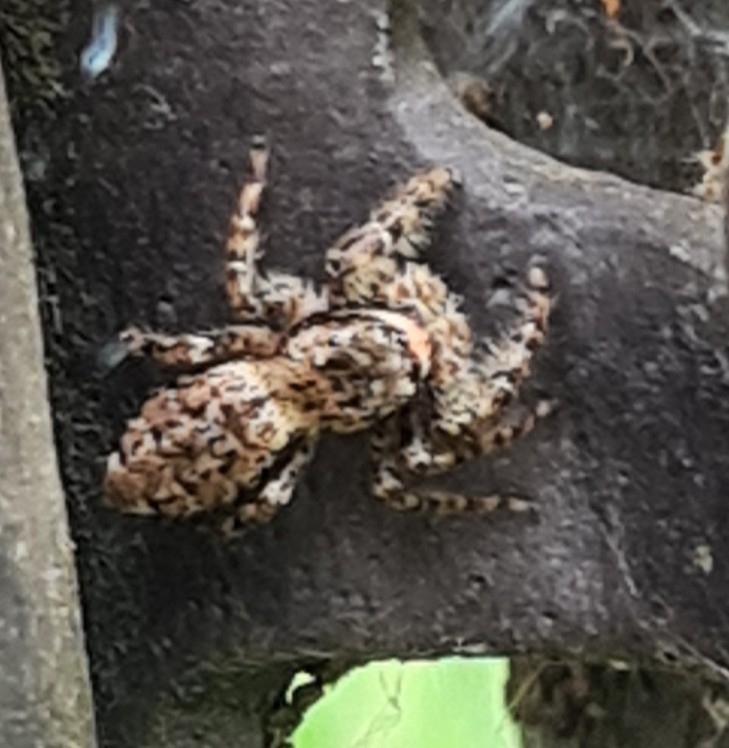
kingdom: Animalia
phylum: Arthropoda
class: Arachnida
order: Araneae
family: Salticidae
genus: Marpissa
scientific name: Marpissa muscosa
